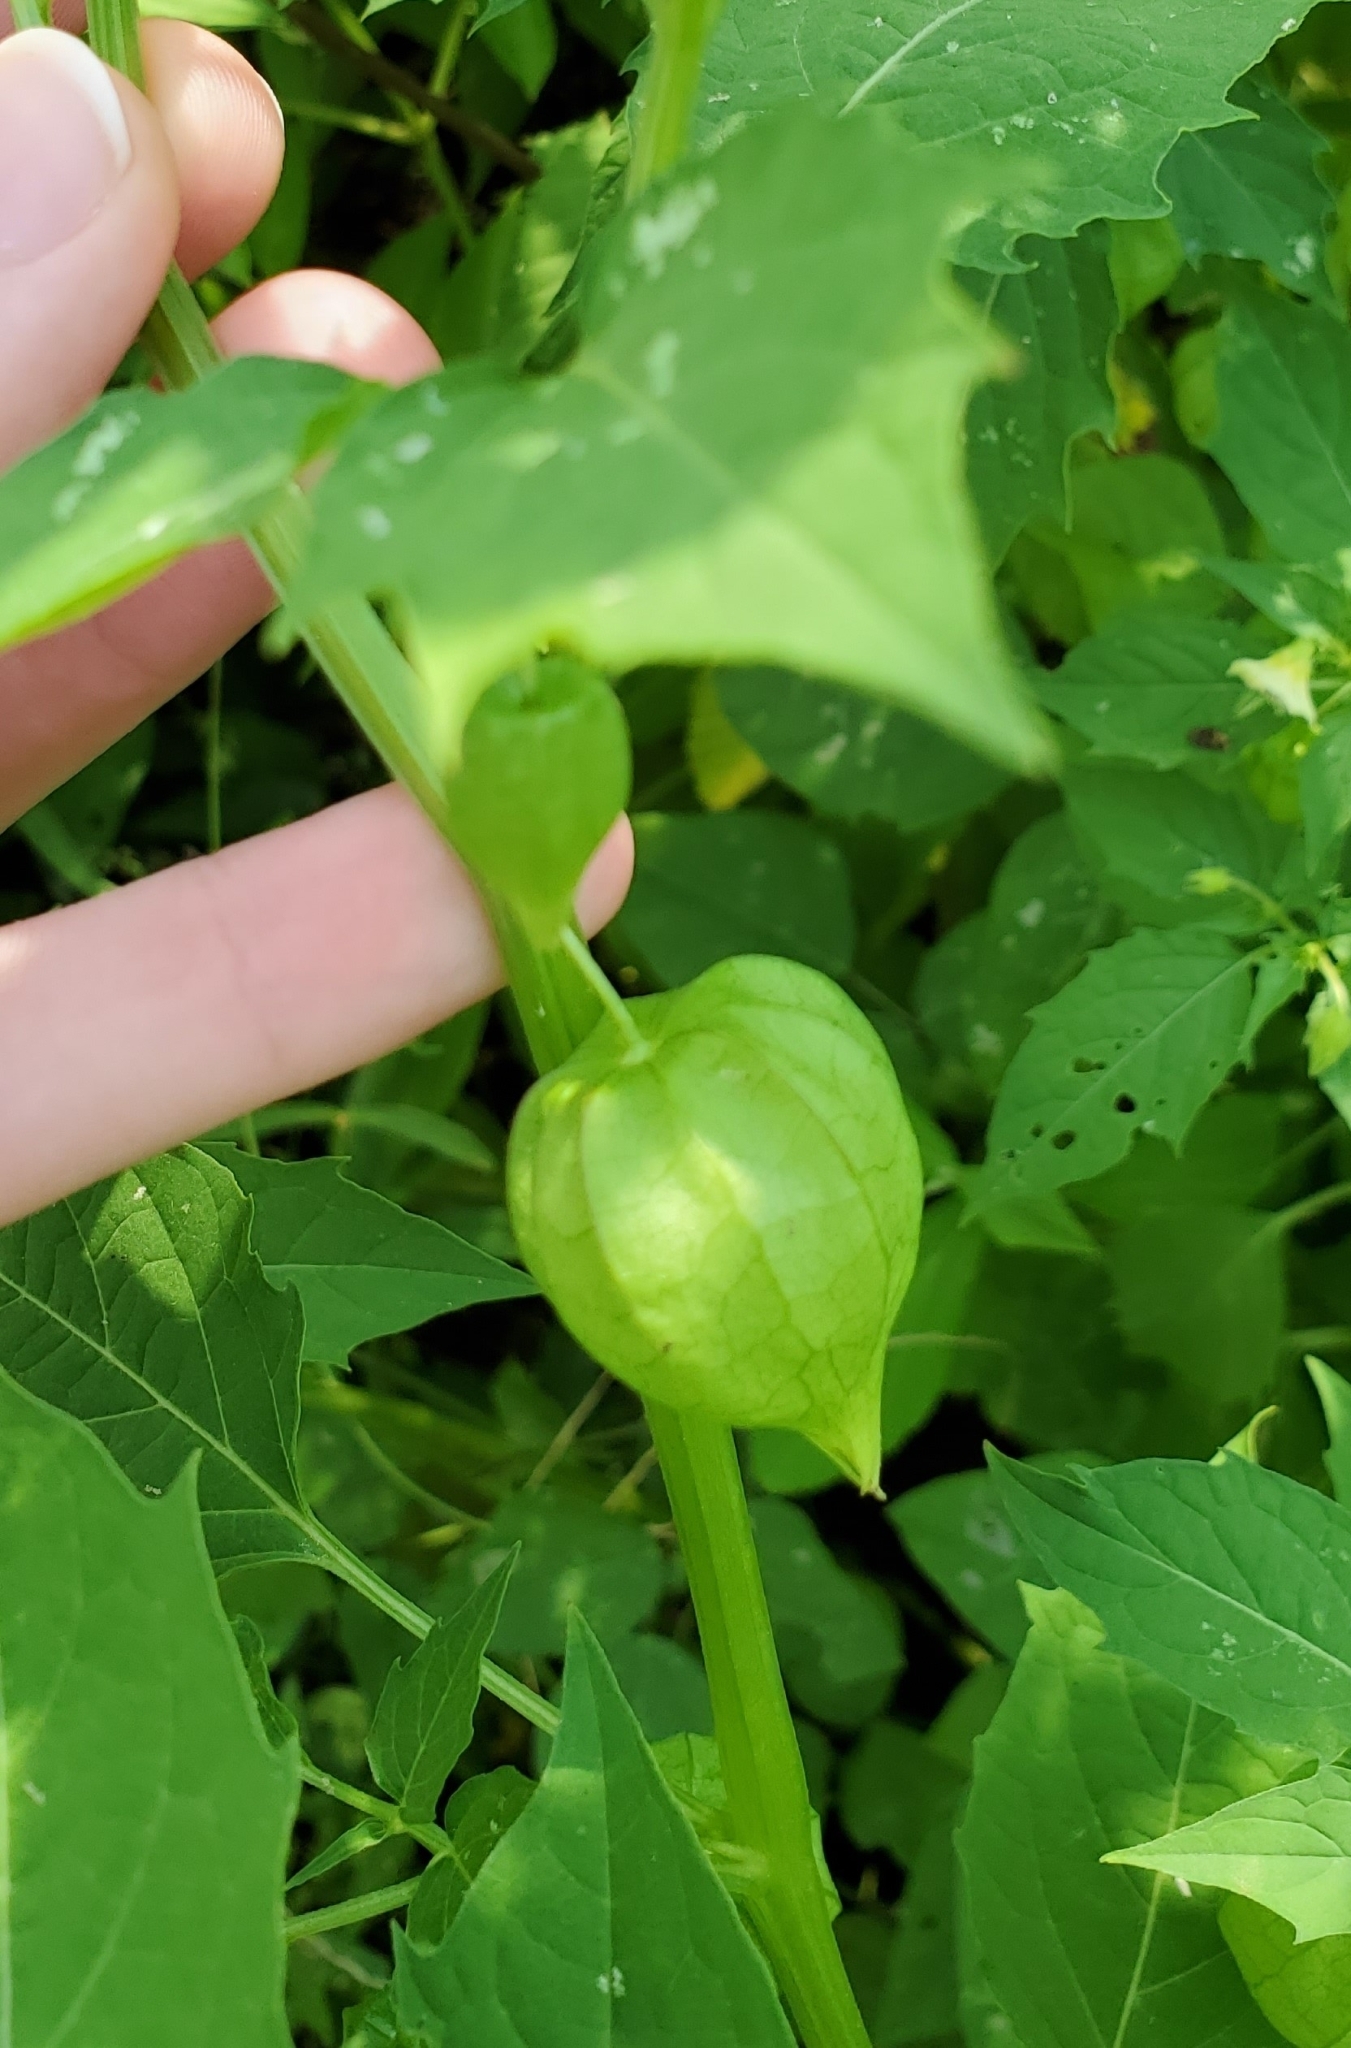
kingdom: Plantae
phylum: Tracheophyta
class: Magnoliopsida
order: Solanales
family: Solanaceae
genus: Physalis
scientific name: Physalis angulata
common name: Angular winter-cherry
